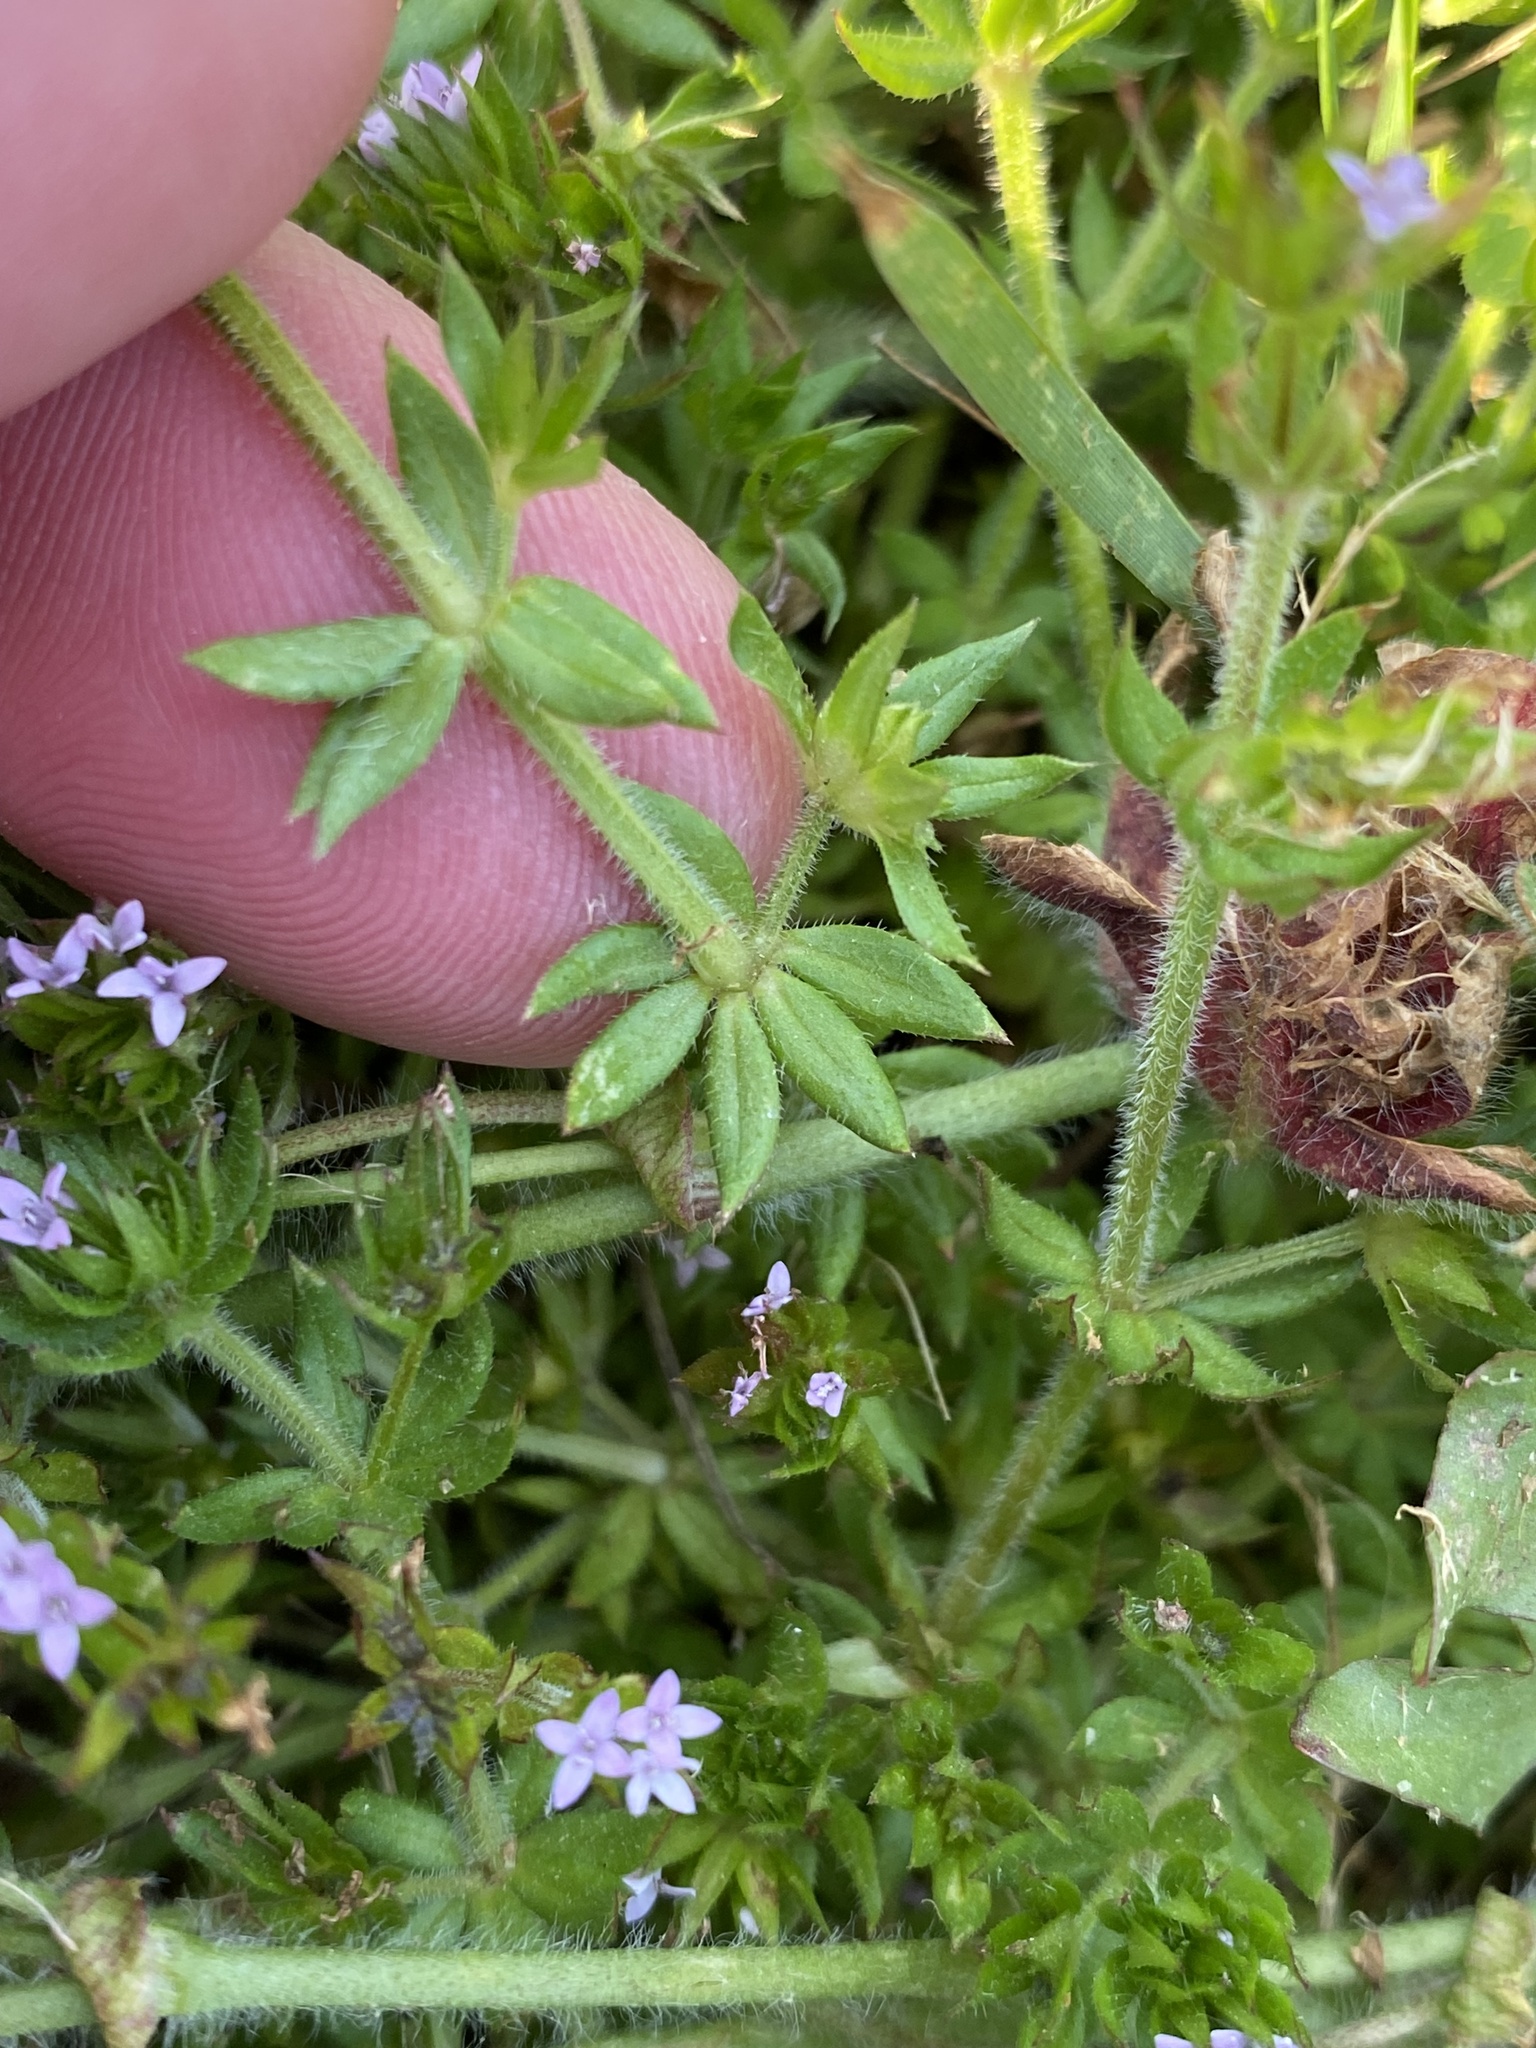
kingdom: Plantae
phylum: Tracheophyta
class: Magnoliopsida
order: Gentianales
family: Rubiaceae
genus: Sherardia
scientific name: Sherardia arvensis
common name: Field madder
